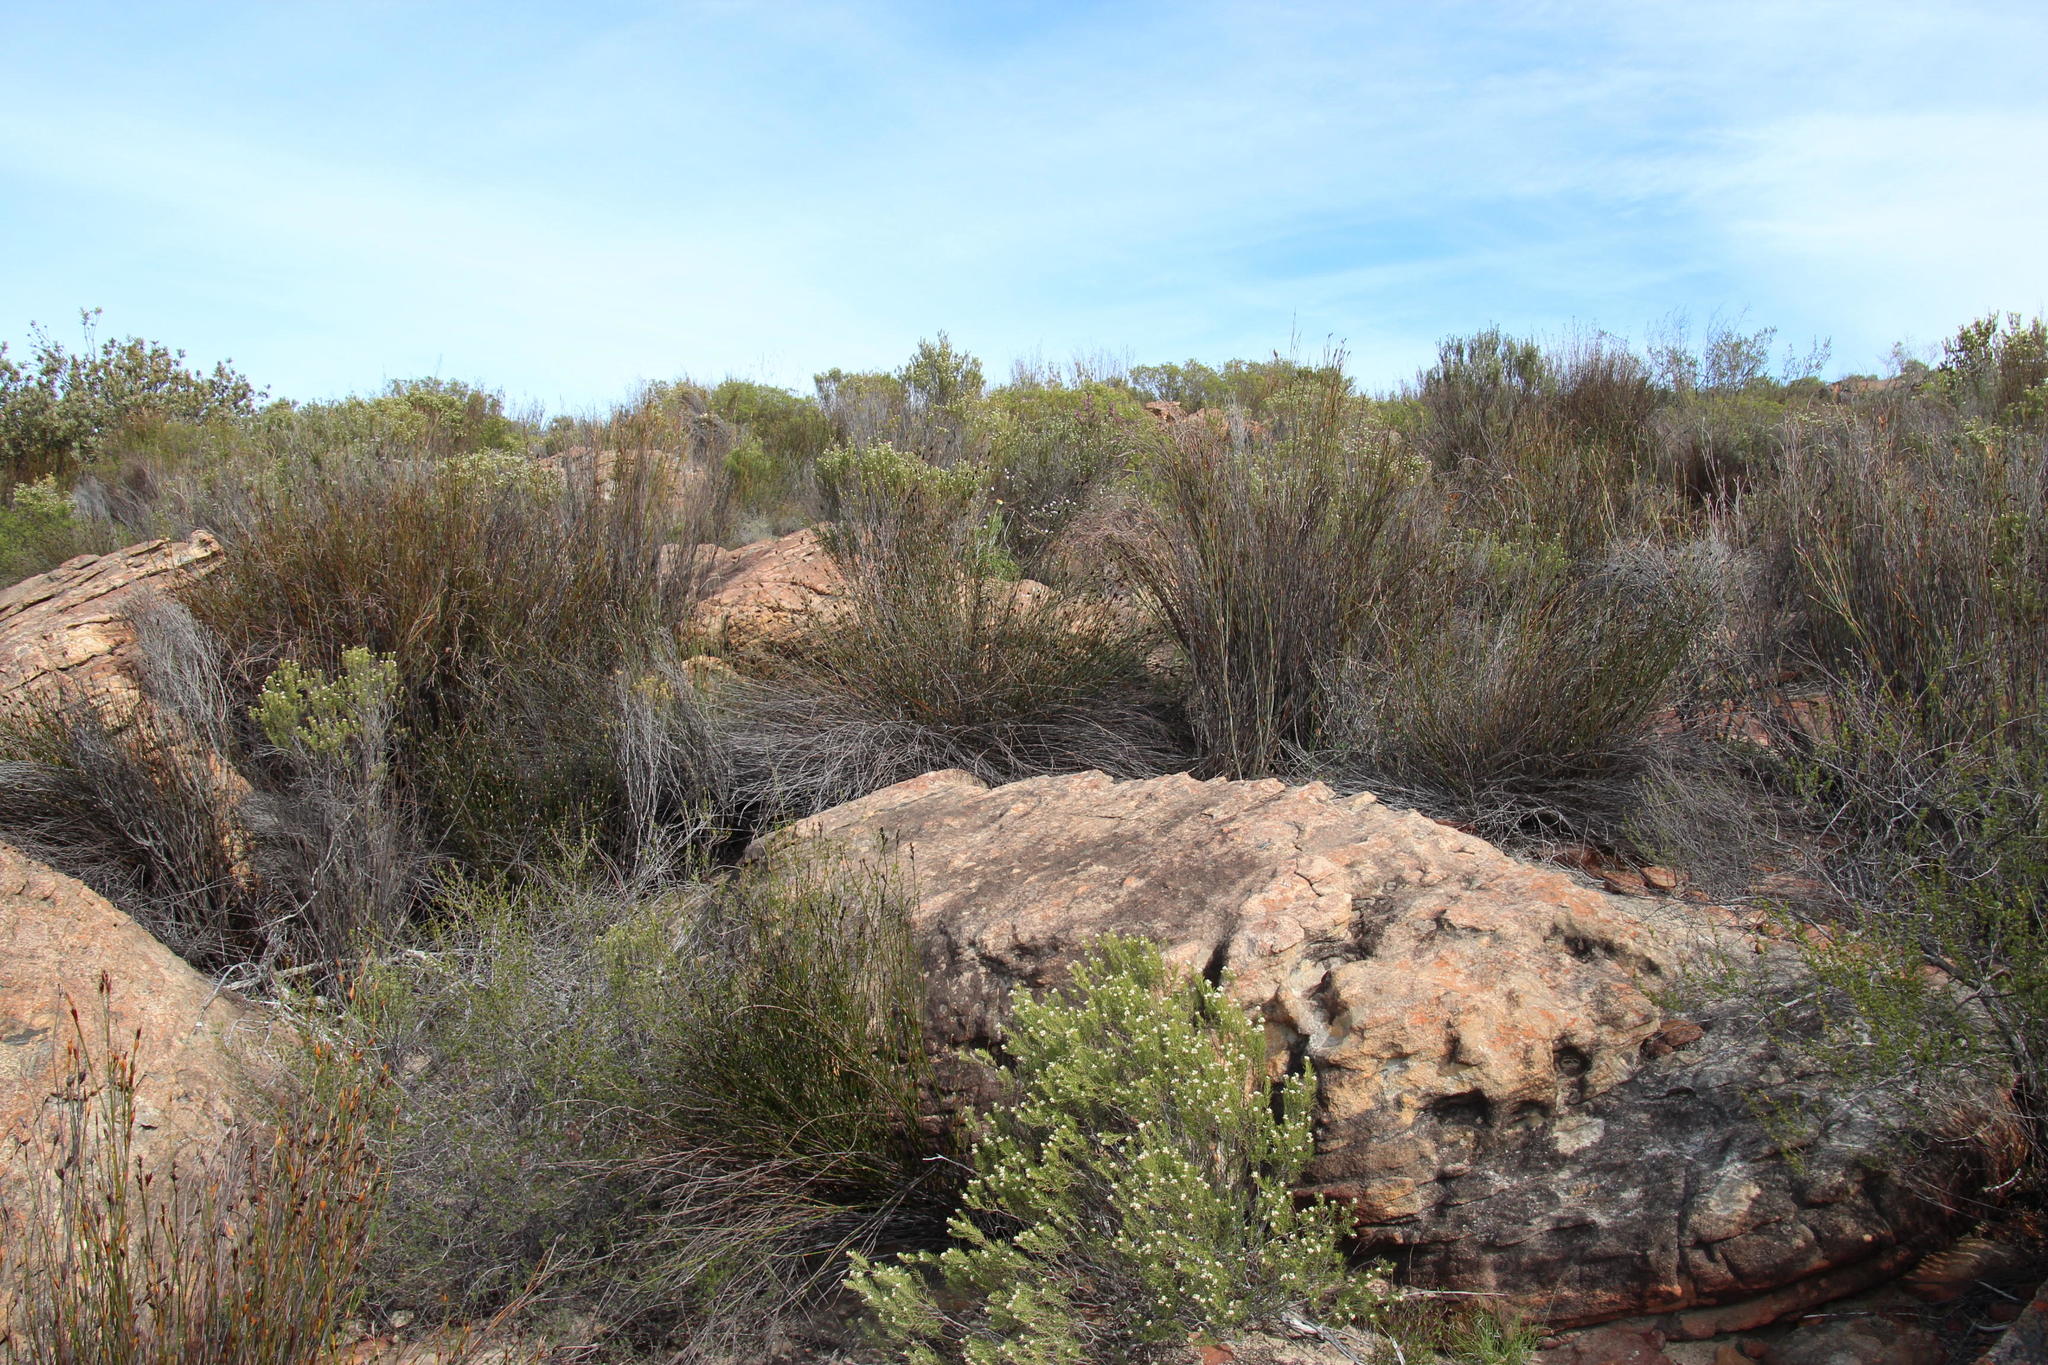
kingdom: Plantae
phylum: Tracheophyta
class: Magnoliopsida
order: Rosales
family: Rhamnaceae
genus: Phylica
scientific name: Phylica rigidifolia
